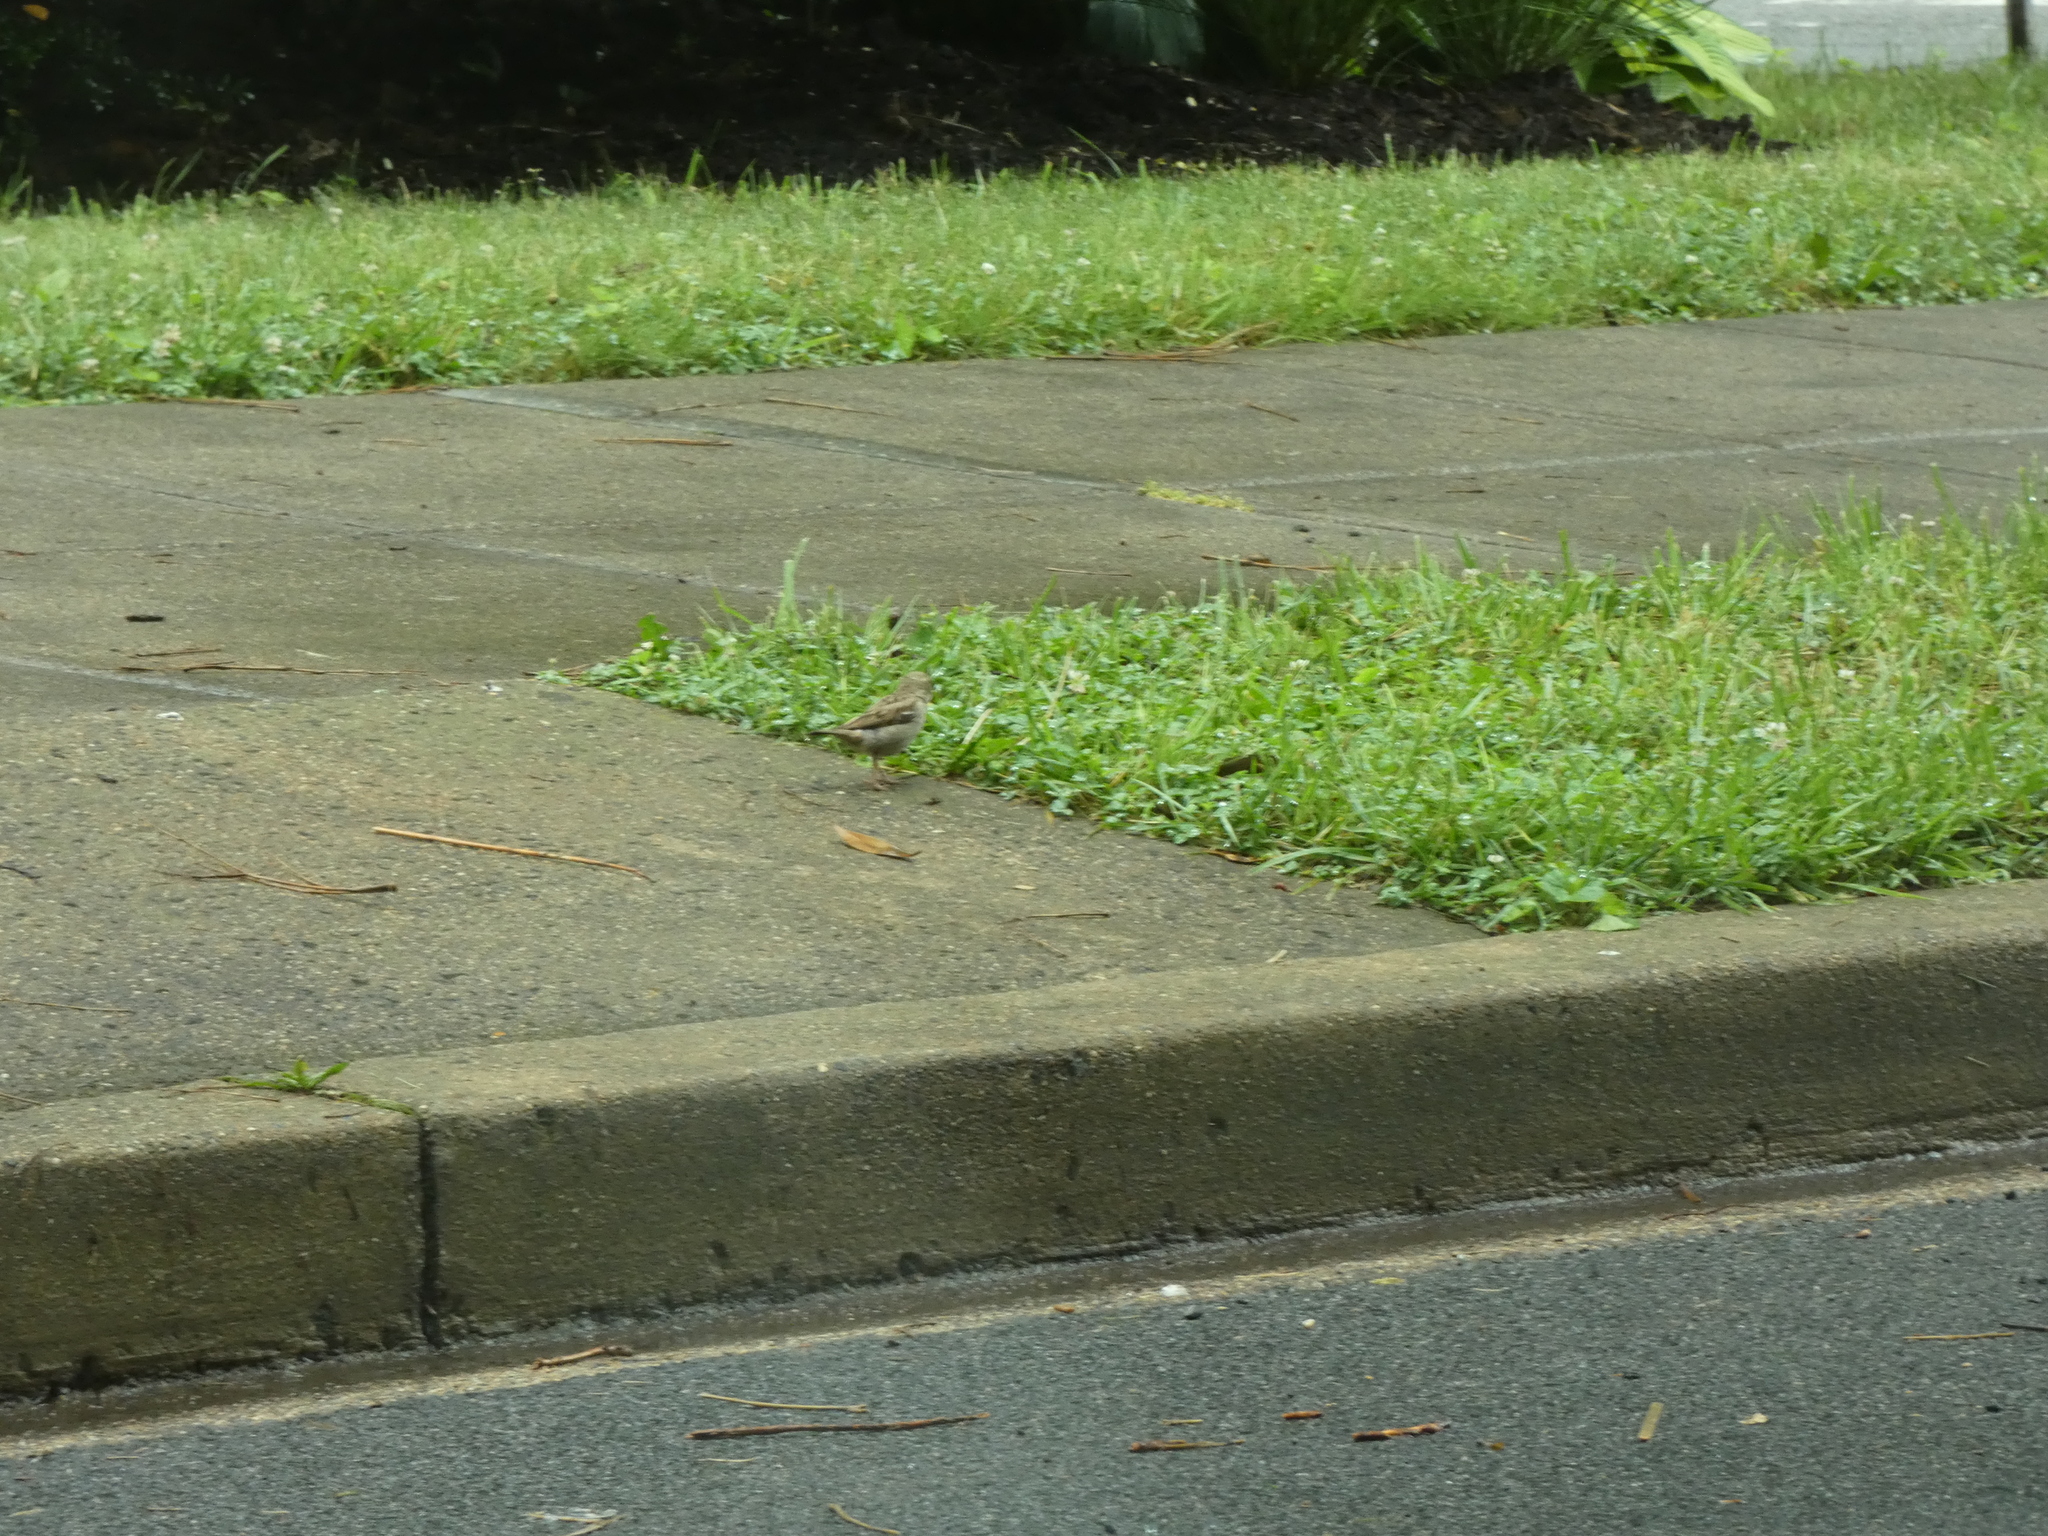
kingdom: Animalia
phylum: Chordata
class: Aves
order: Passeriformes
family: Passeridae
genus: Passer
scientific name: Passer domesticus
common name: House sparrow
